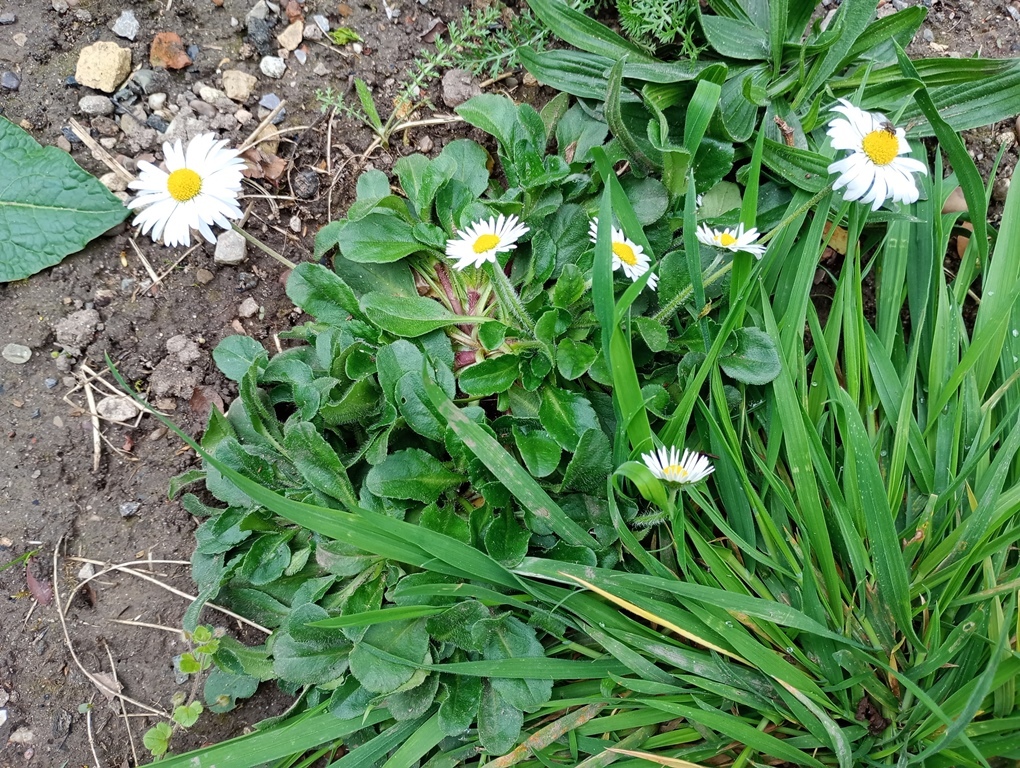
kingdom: Plantae
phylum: Tracheophyta
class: Magnoliopsida
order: Asterales
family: Asteraceae
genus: Bellis
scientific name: Bellis perennis
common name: Lawndaisy
